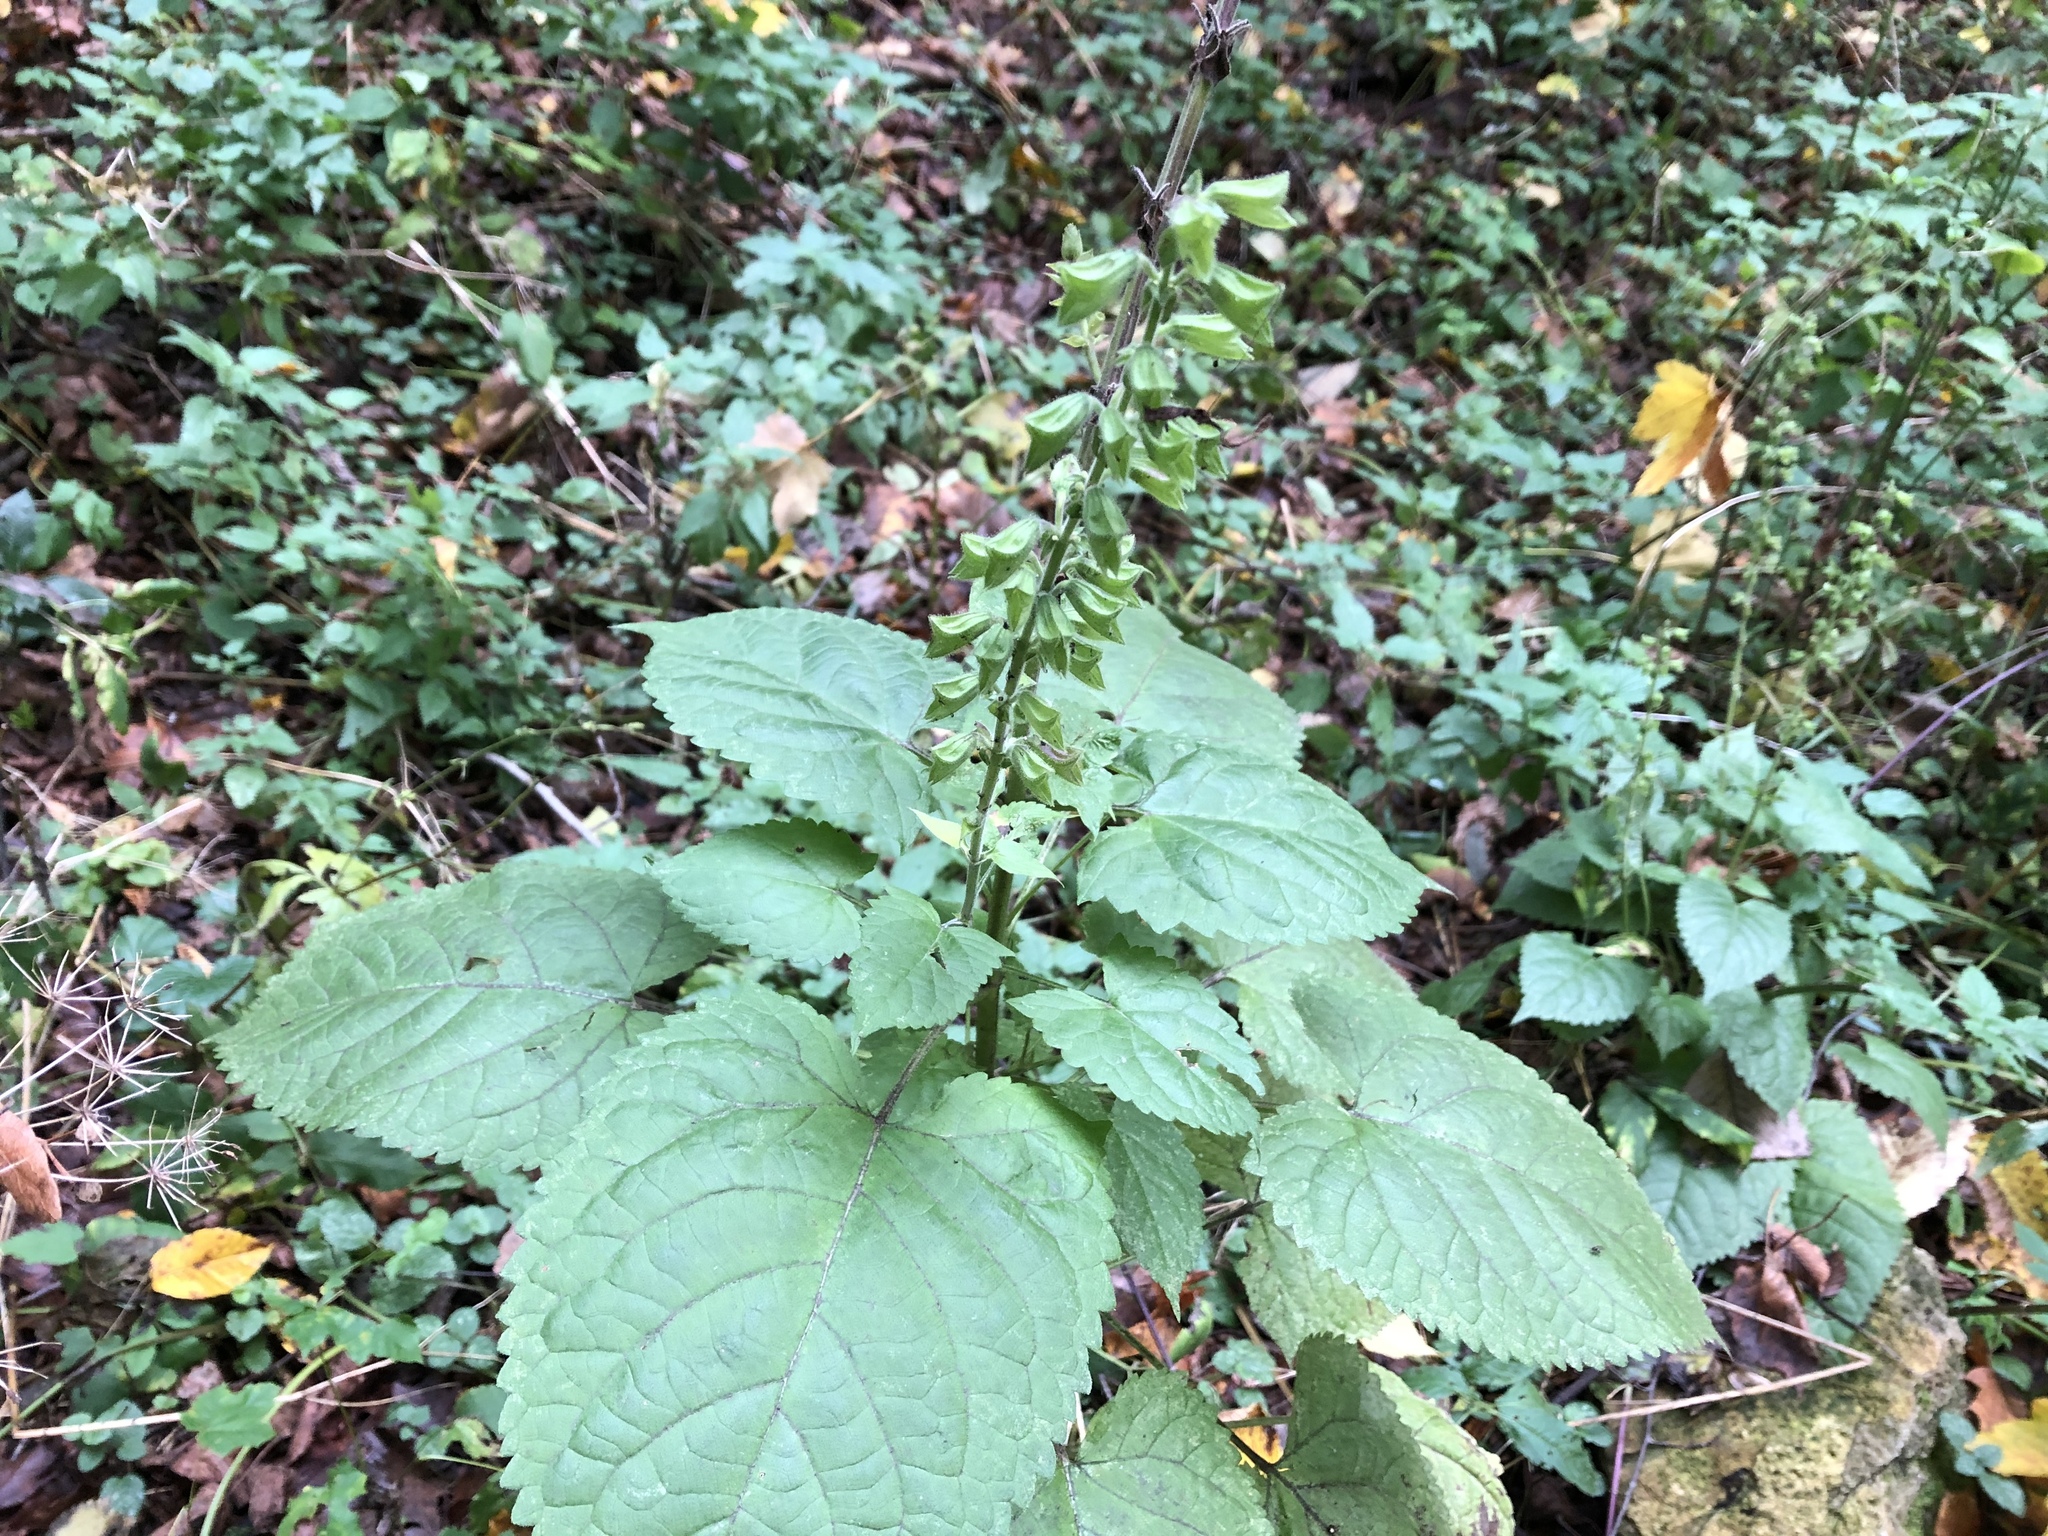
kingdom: Plantae
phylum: Tracheophyta
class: Magnoliopsida
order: Lamiales
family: Lamiaceae
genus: Salvia
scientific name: Salvia glutinosa
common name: Sticky clary
